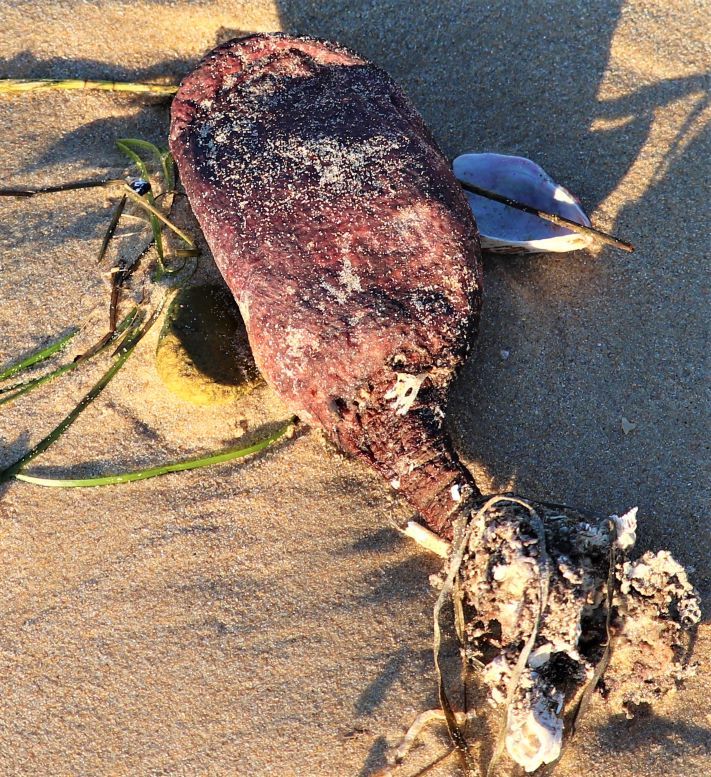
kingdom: Animalia
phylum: Chordata
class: Ascidiacea
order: Stolidobranchia
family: Pyuridae
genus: Pyura
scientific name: Pyura stolonifera
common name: Red bait
